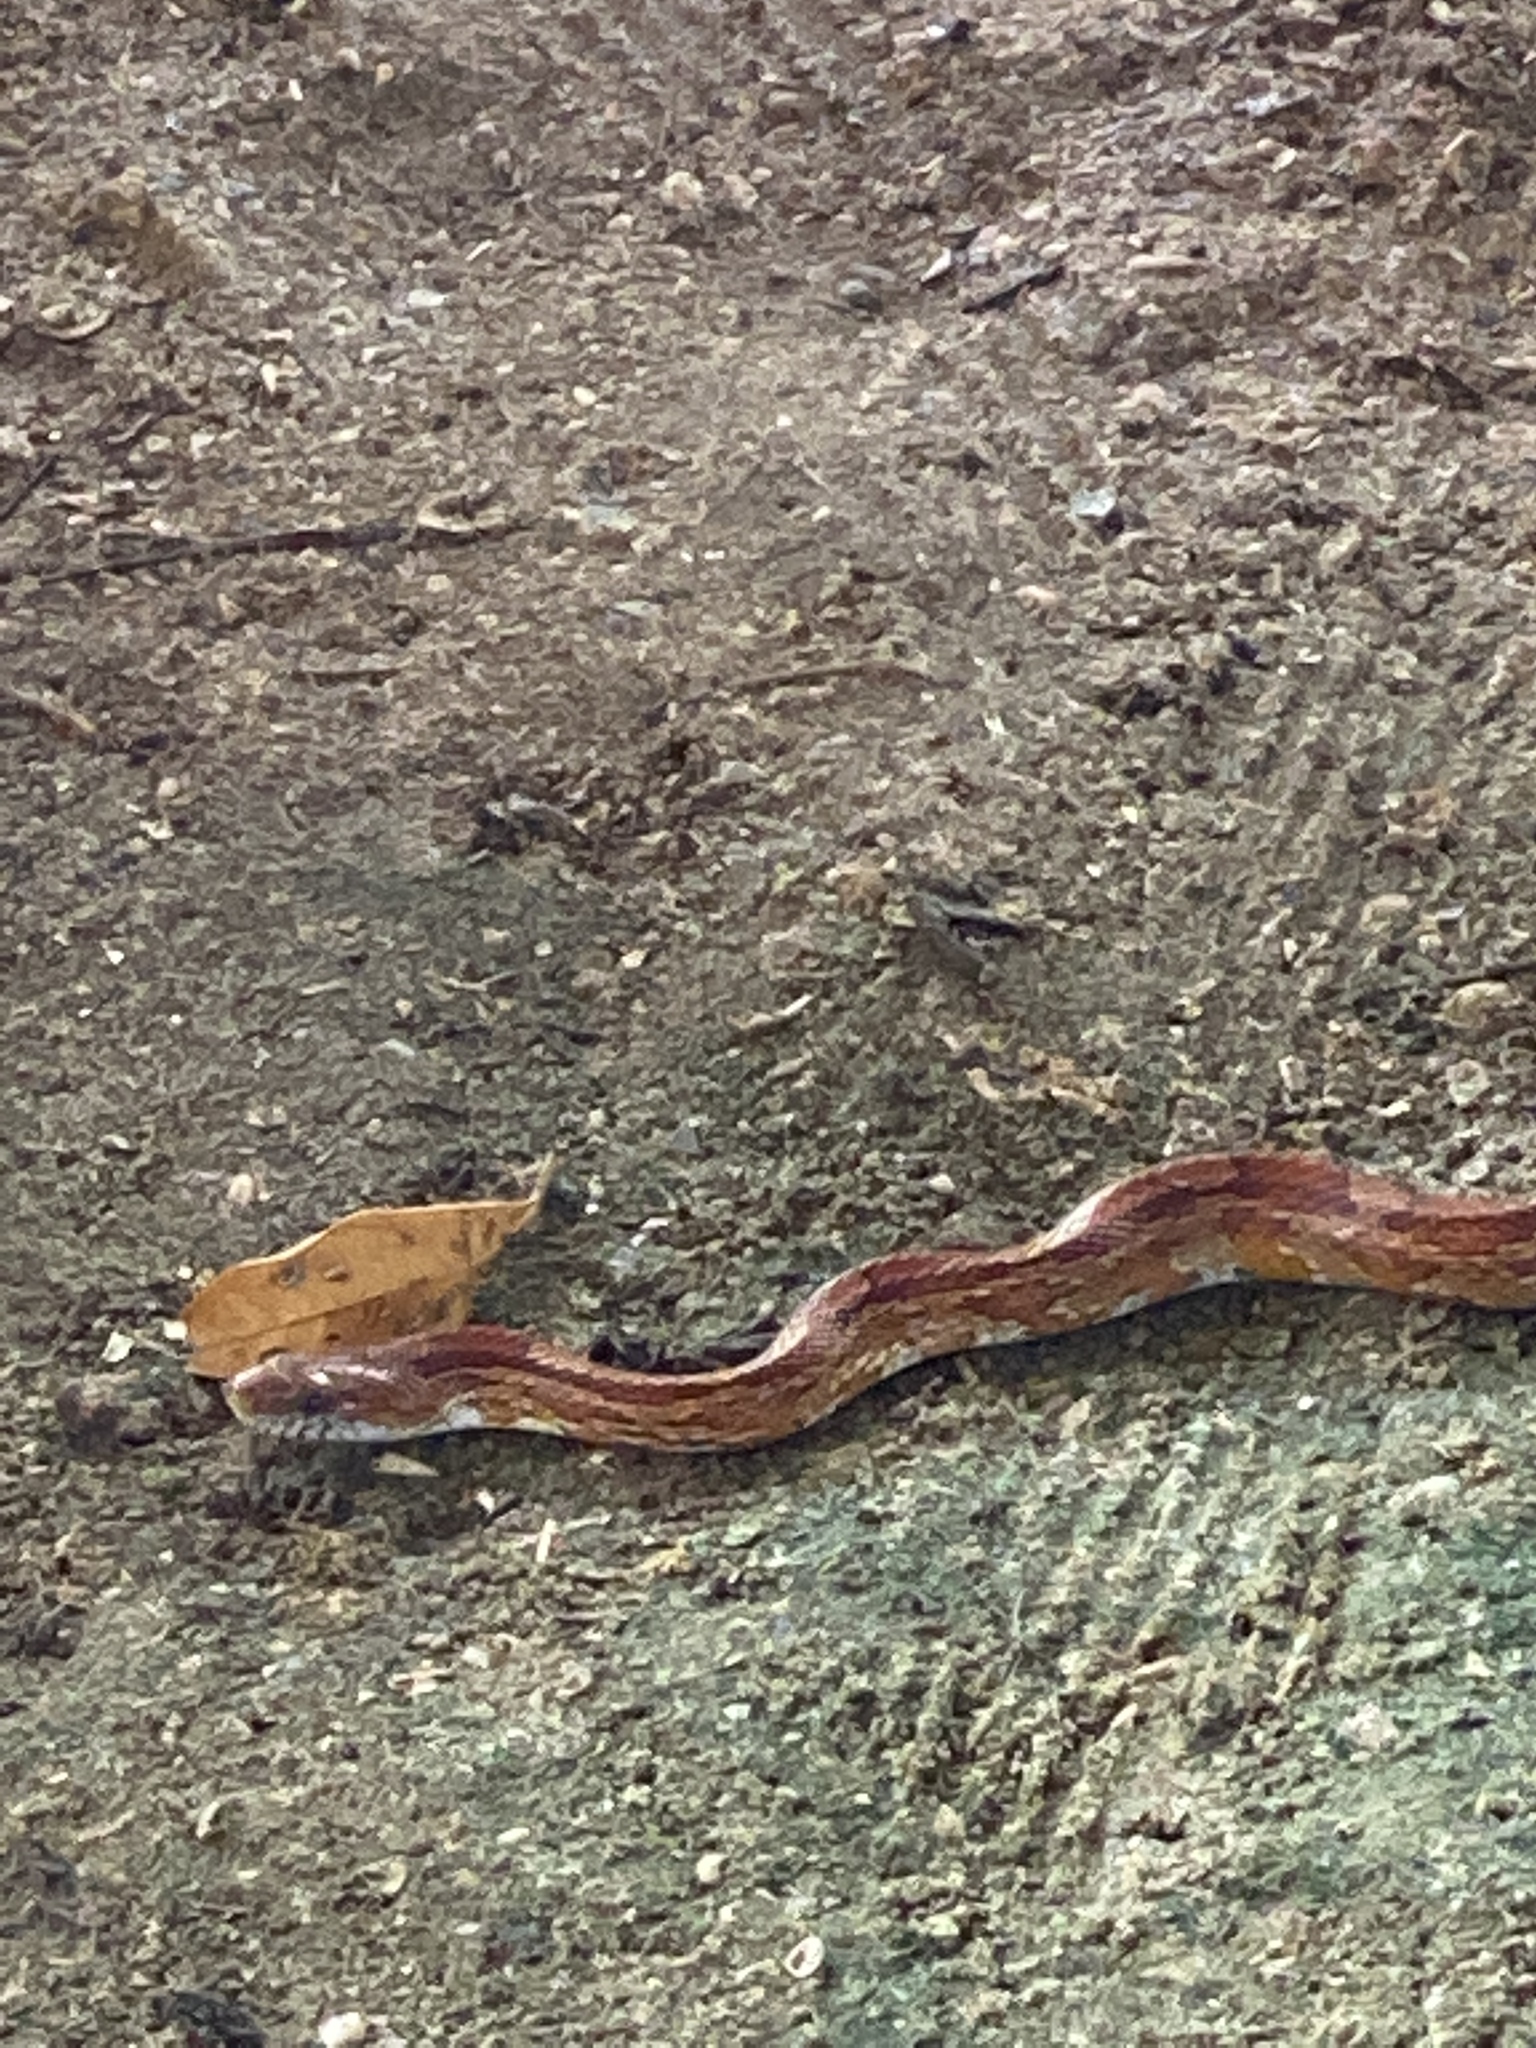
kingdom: Animalia
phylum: Chordata
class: Squamata
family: Colubridae
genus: Pantherophis
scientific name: Pantherophis guttatus
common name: Red cornsnake
